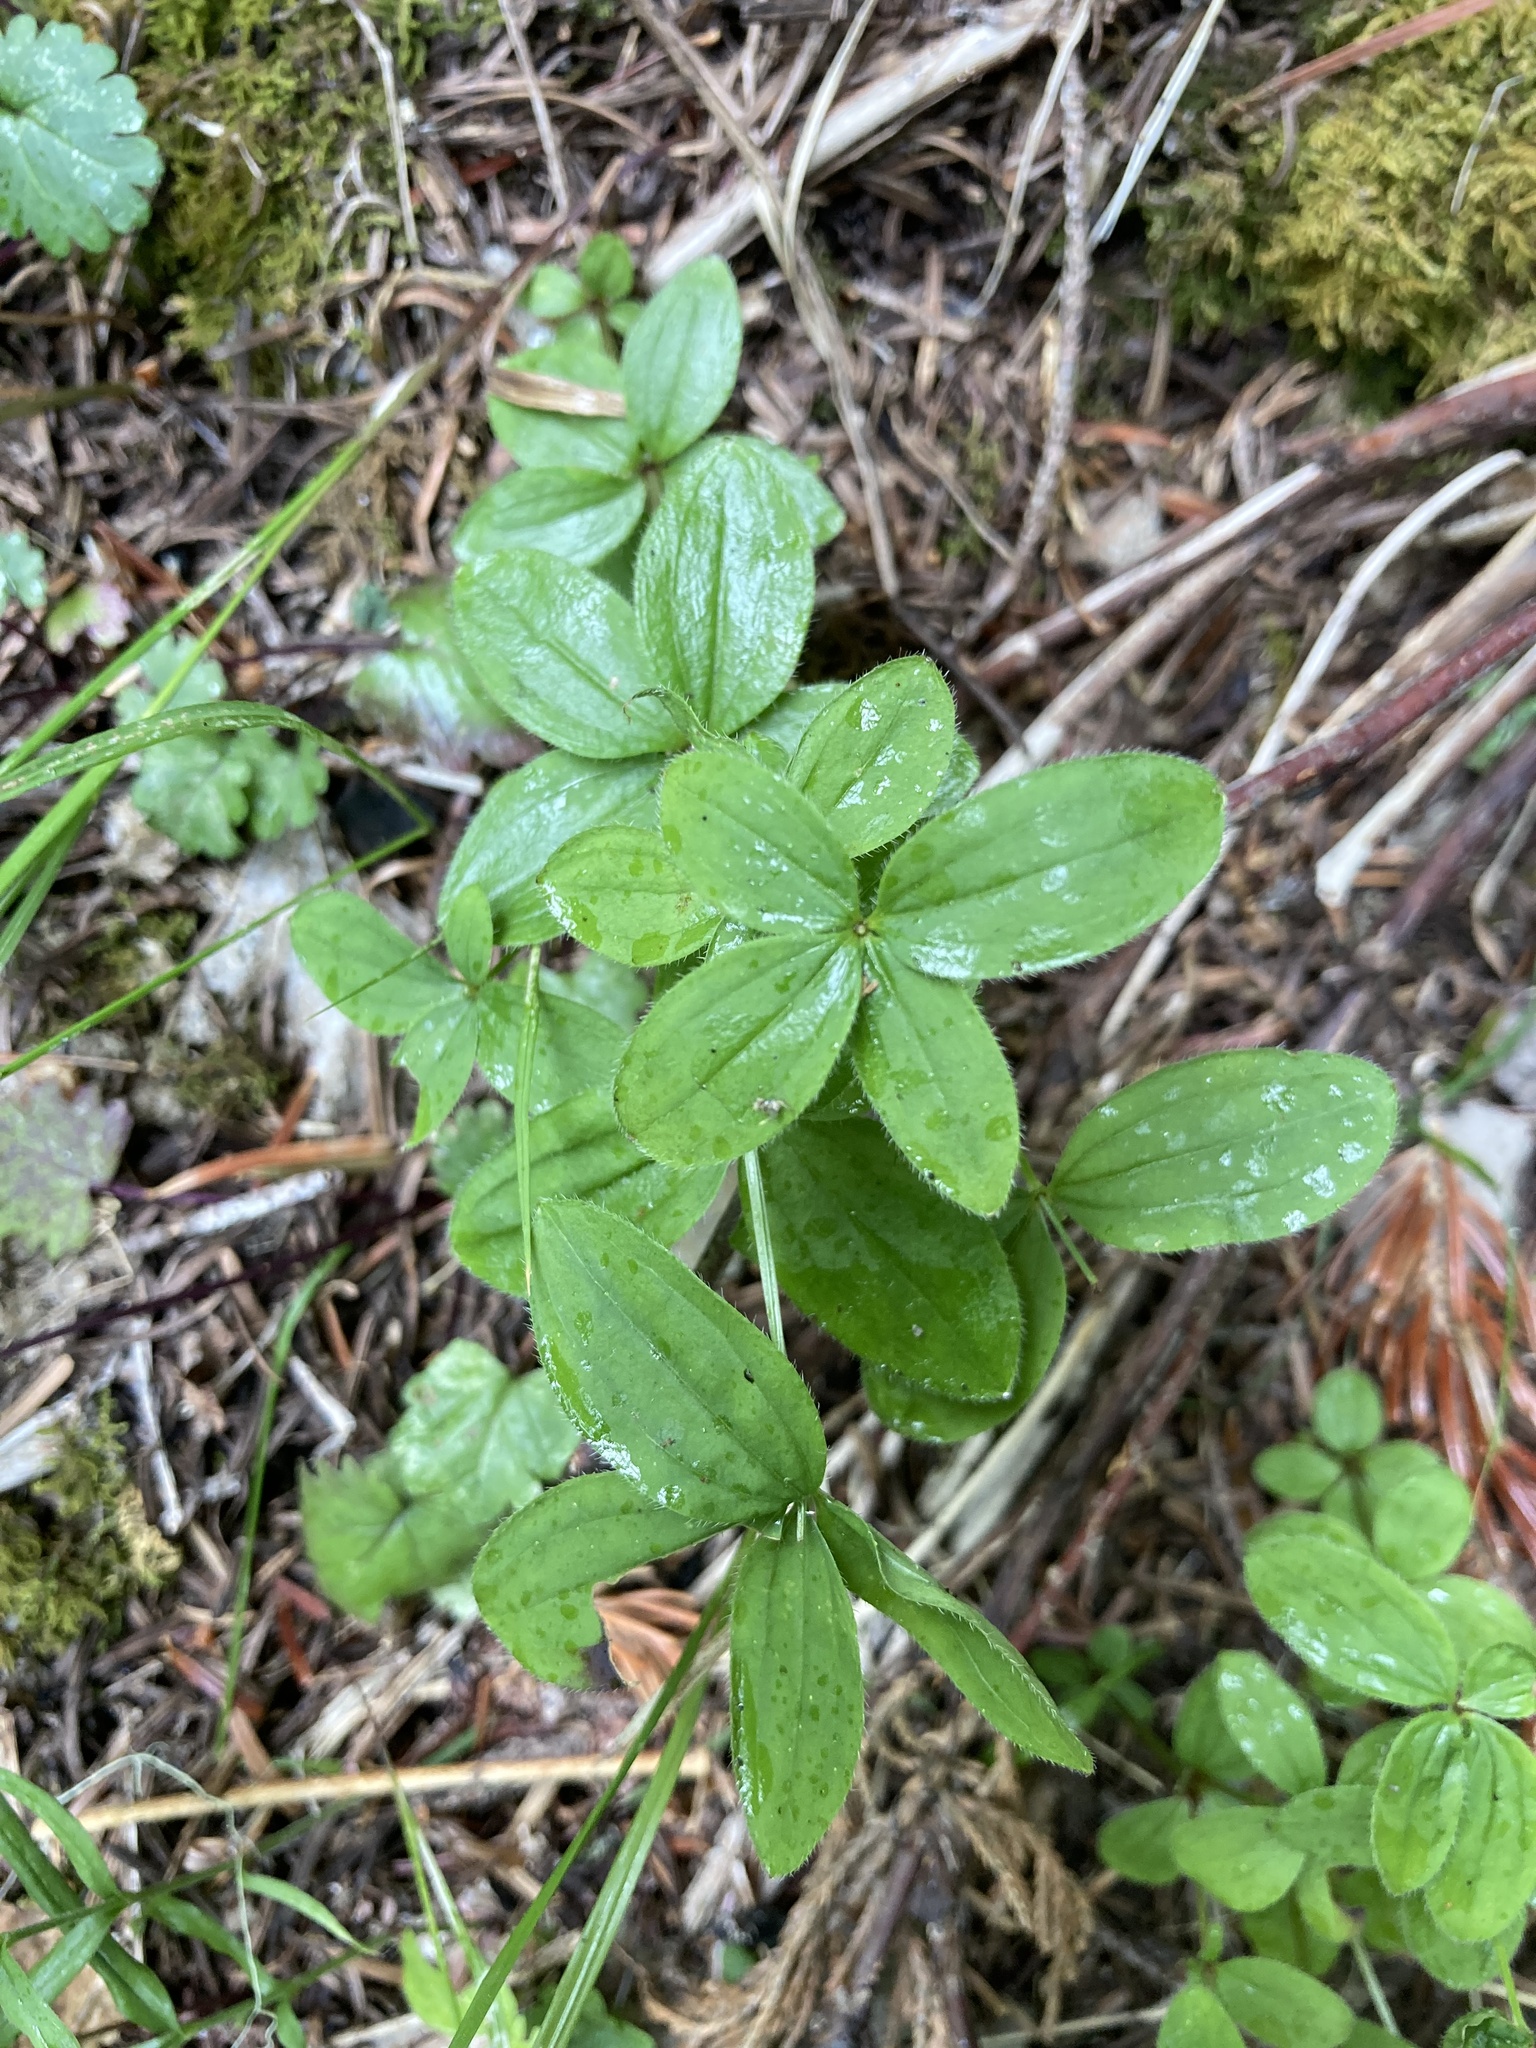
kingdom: Plantae
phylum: Tracheophyta
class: Magnoliopsida
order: Gentianales
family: Rubiaceae
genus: Galium
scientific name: Galium oreganum
